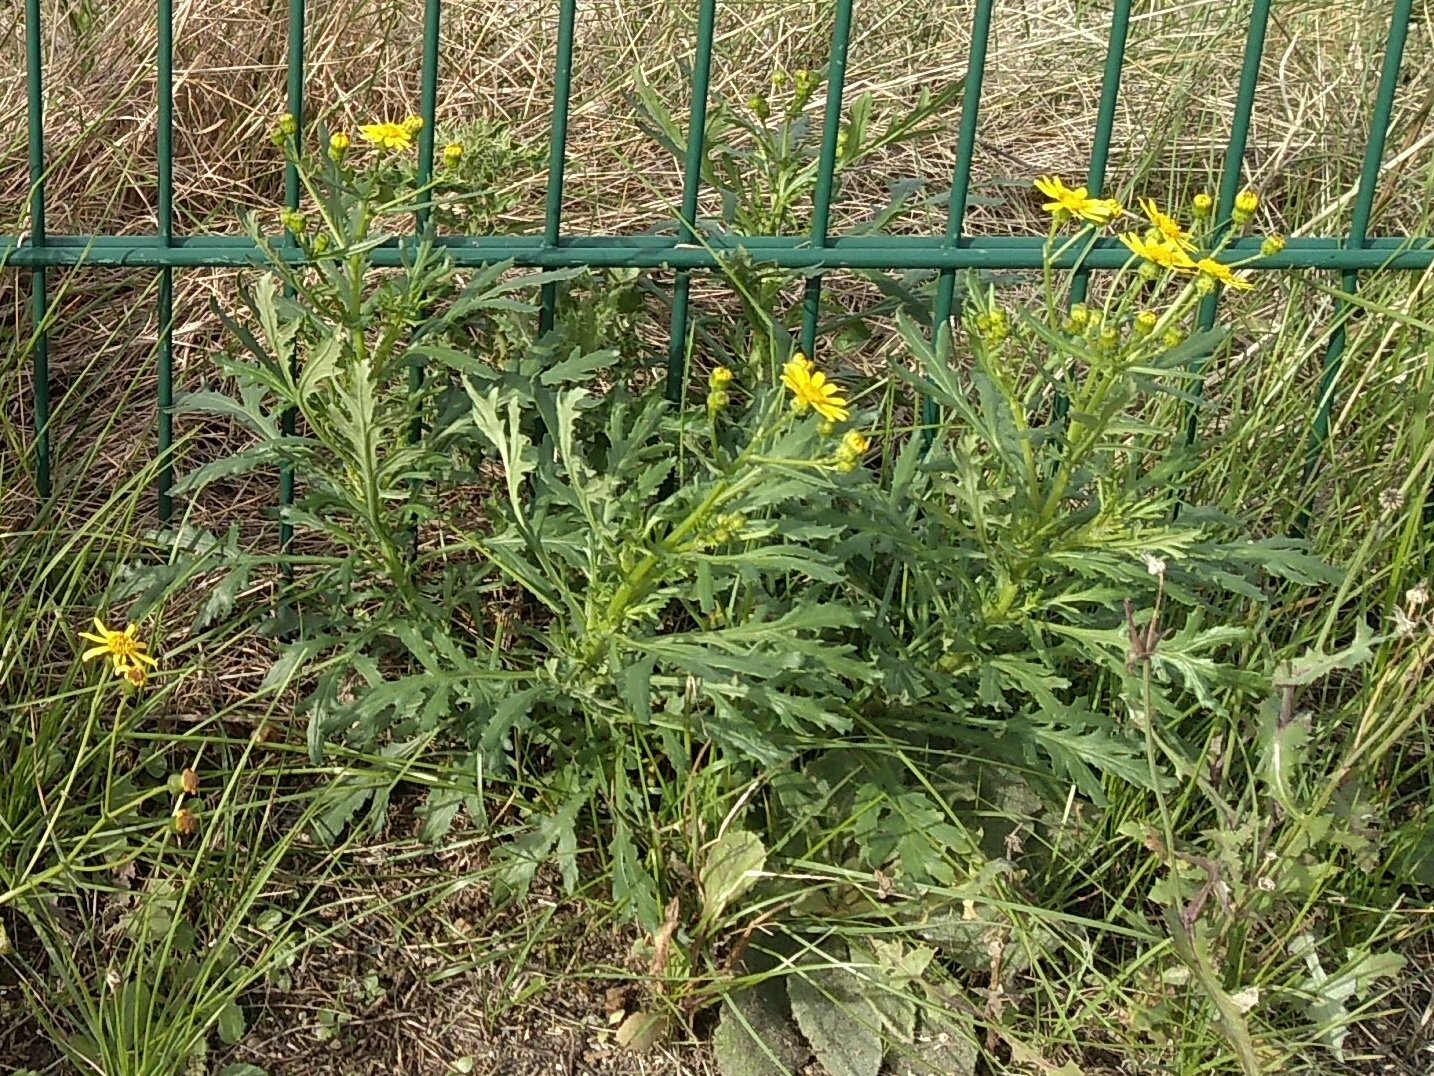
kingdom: Plantae
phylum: Tracheophyta
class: Magnoliopsida
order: Asterales
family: Asteraceae
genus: Senecio
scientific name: Senecio squalidus
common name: Oxford ragwort
